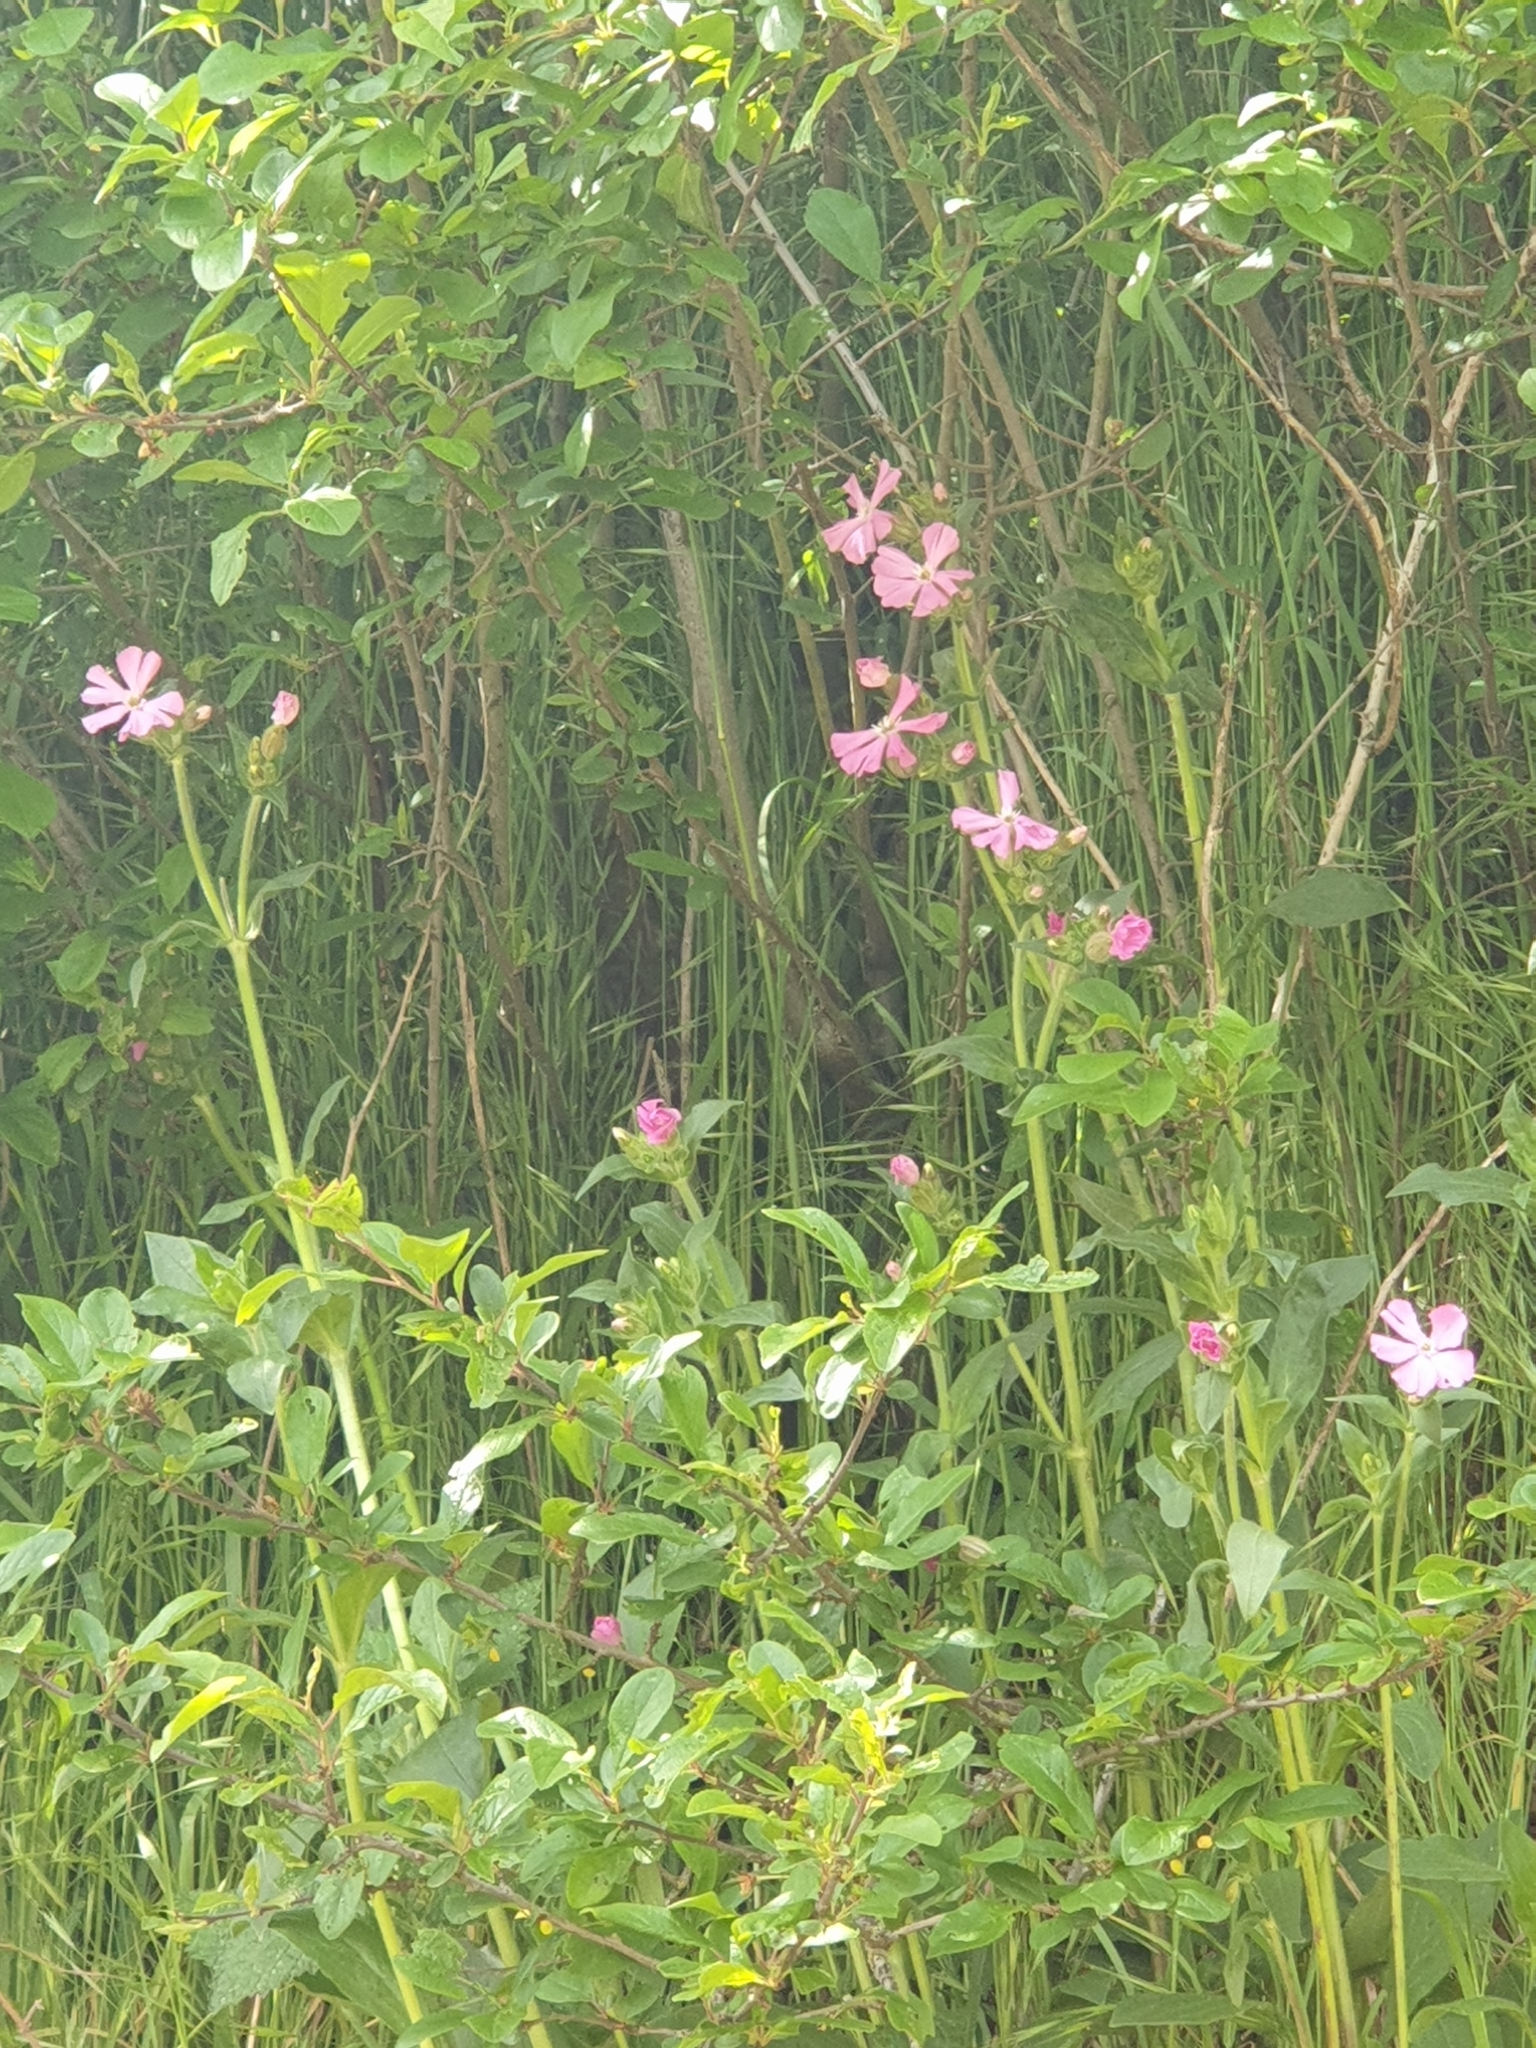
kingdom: Plantae
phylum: Tracheophyta
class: Magnoliopsida
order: Caryophyllales
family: Caryophyllaceae
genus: Silene
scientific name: Silene dioica
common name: Red campion
